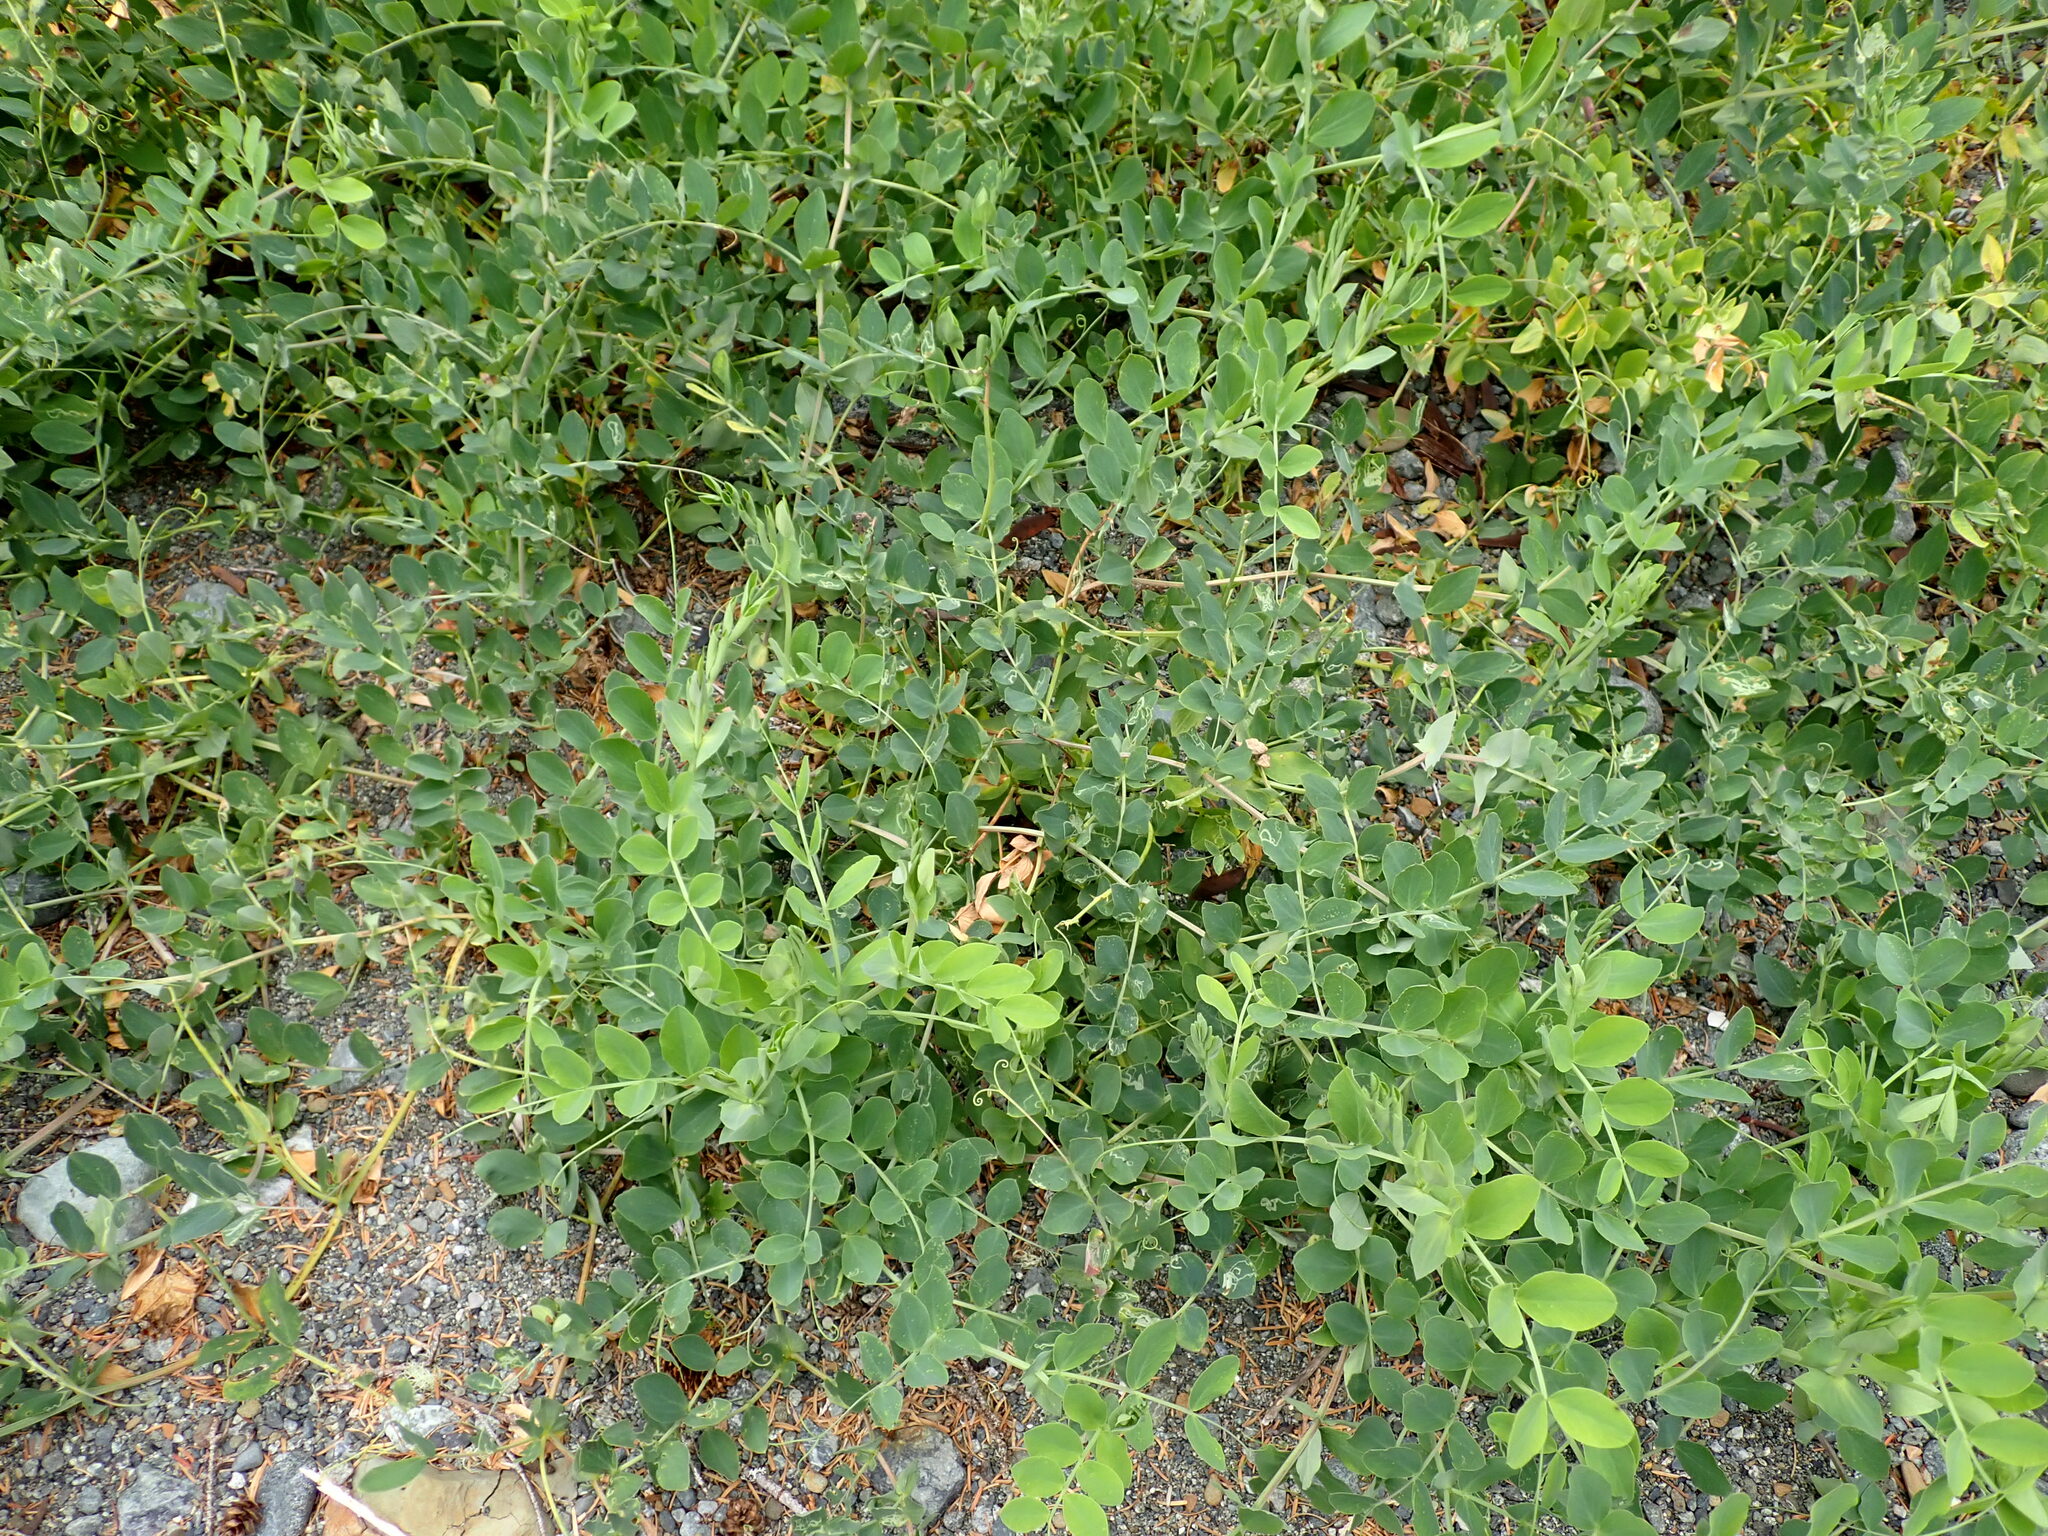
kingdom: Plantae
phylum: Tracheophyta
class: Magnoliopsida
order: Fabales
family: Fabaceae
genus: Lathyrus
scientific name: Lathyrus japonicus
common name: Sea pea
